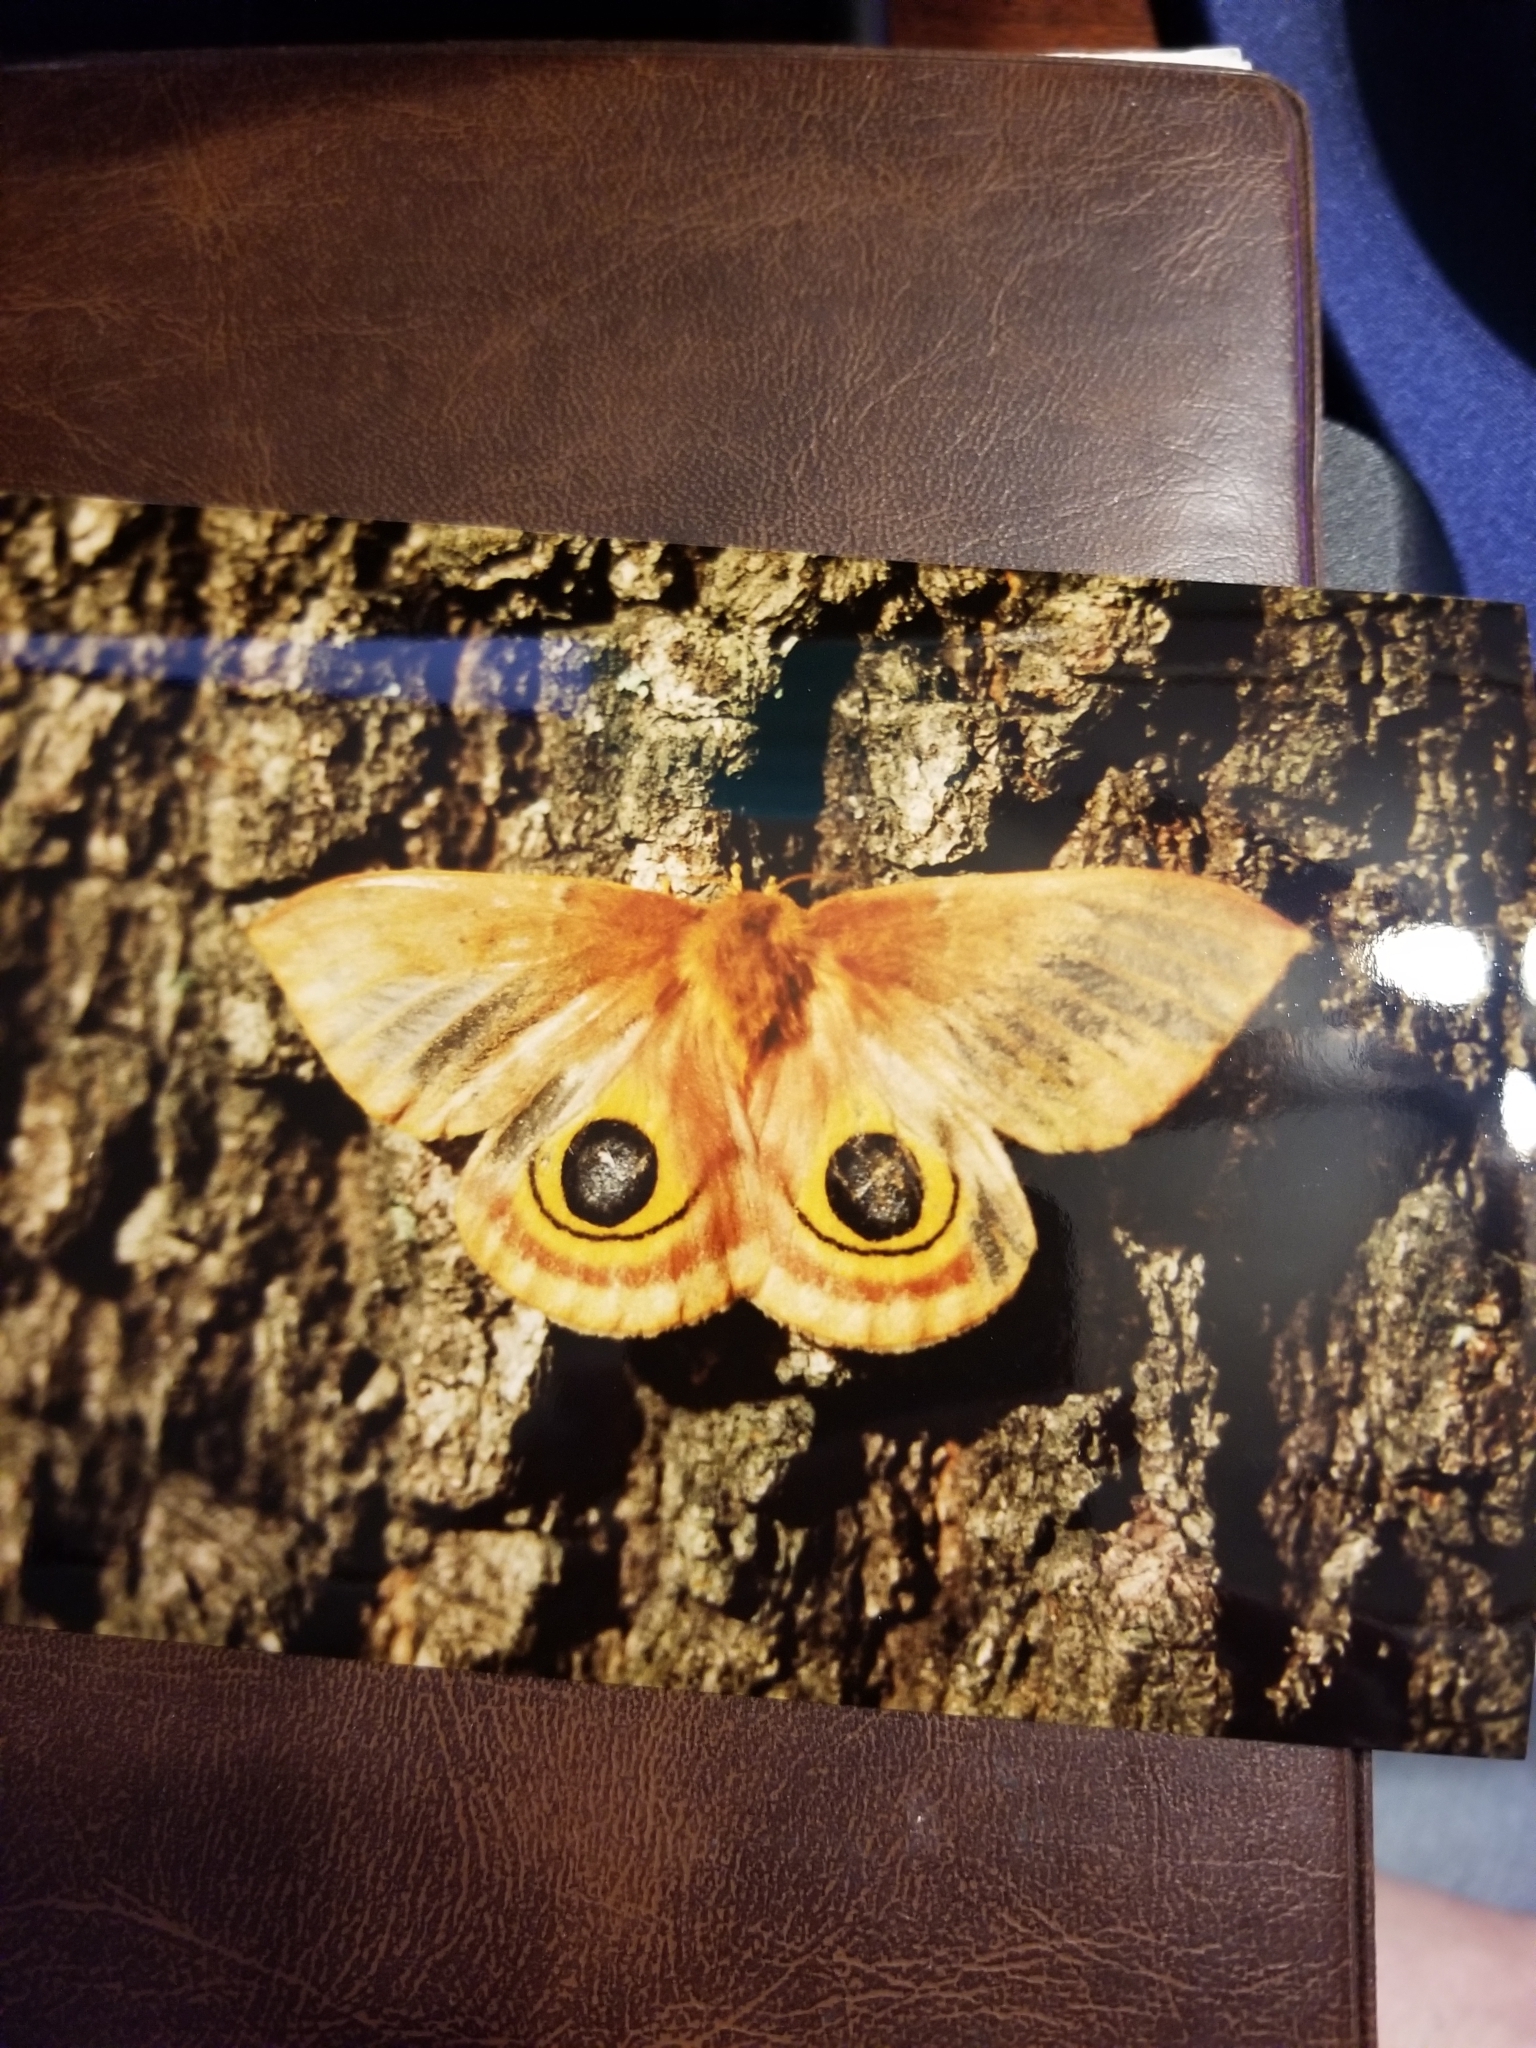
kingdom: Animalia
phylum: Arthropoda
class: Insecta
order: Lepidoptera
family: Saturniidae
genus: Automeris
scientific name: Automeris io
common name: Io moth
